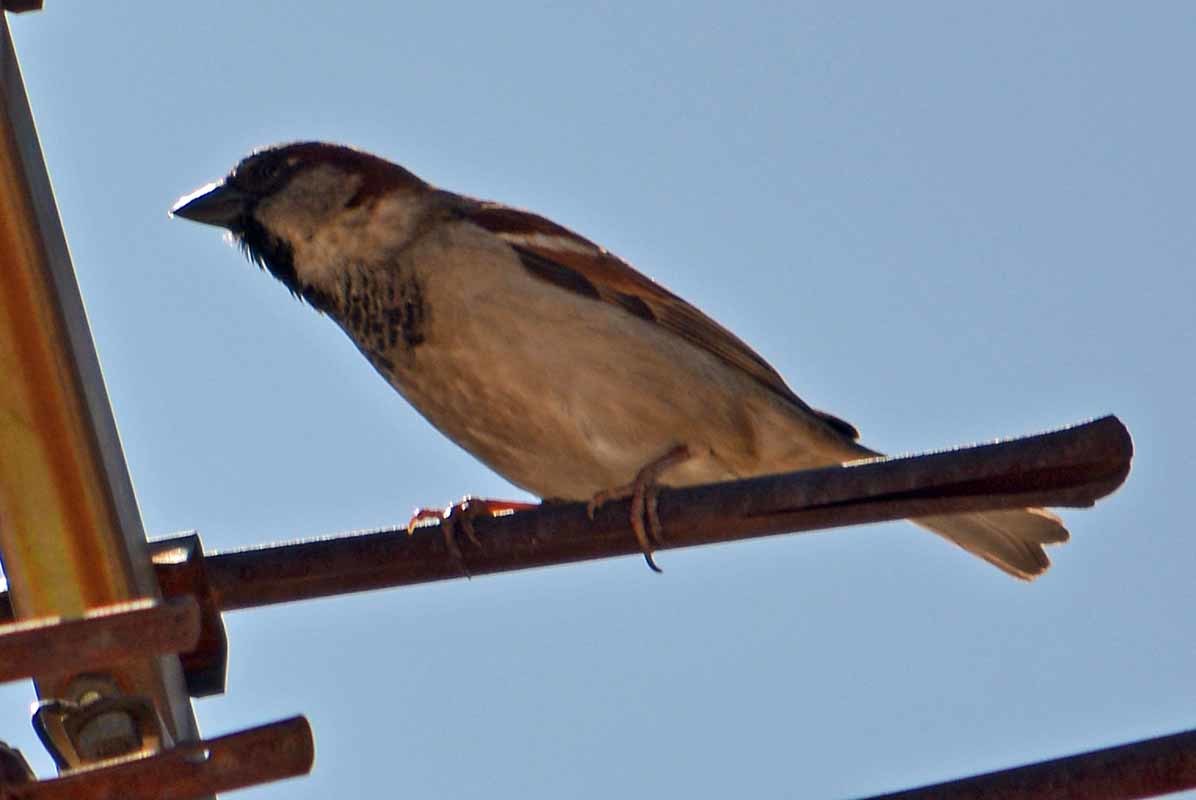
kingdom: Animalia
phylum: Chordata
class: Aves
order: Passeriformes
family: Passeridae
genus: Passer
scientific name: Passer domesticus
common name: House sparrow
